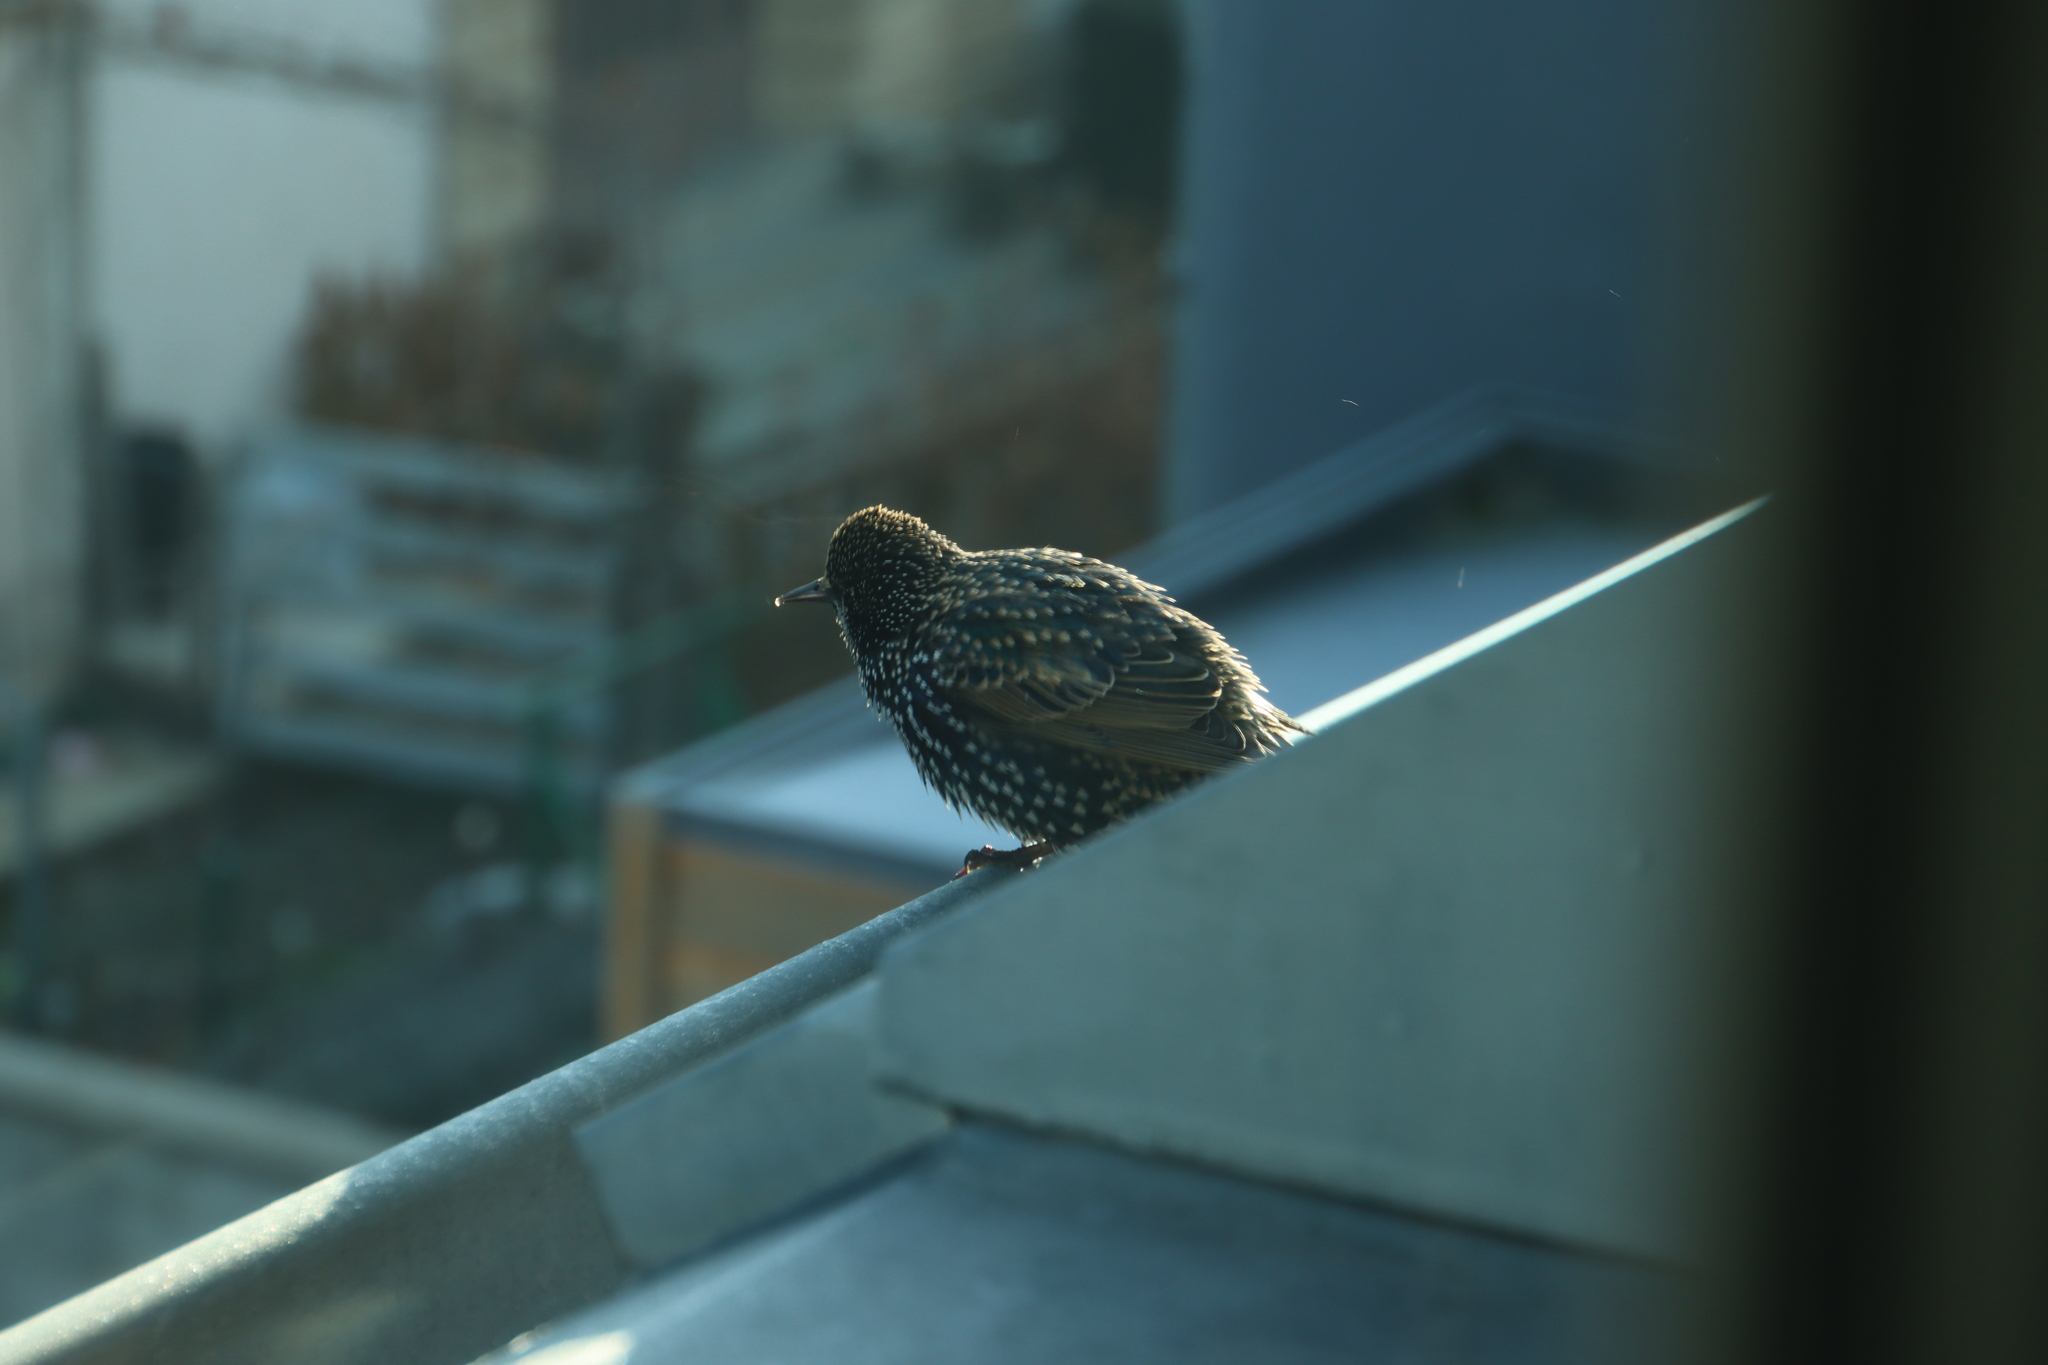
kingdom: Animalia
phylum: Chordata
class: Aves
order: Passeriformes
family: Sturnidae
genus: Sturnus
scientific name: Sturnus vulgaris
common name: Common starling
